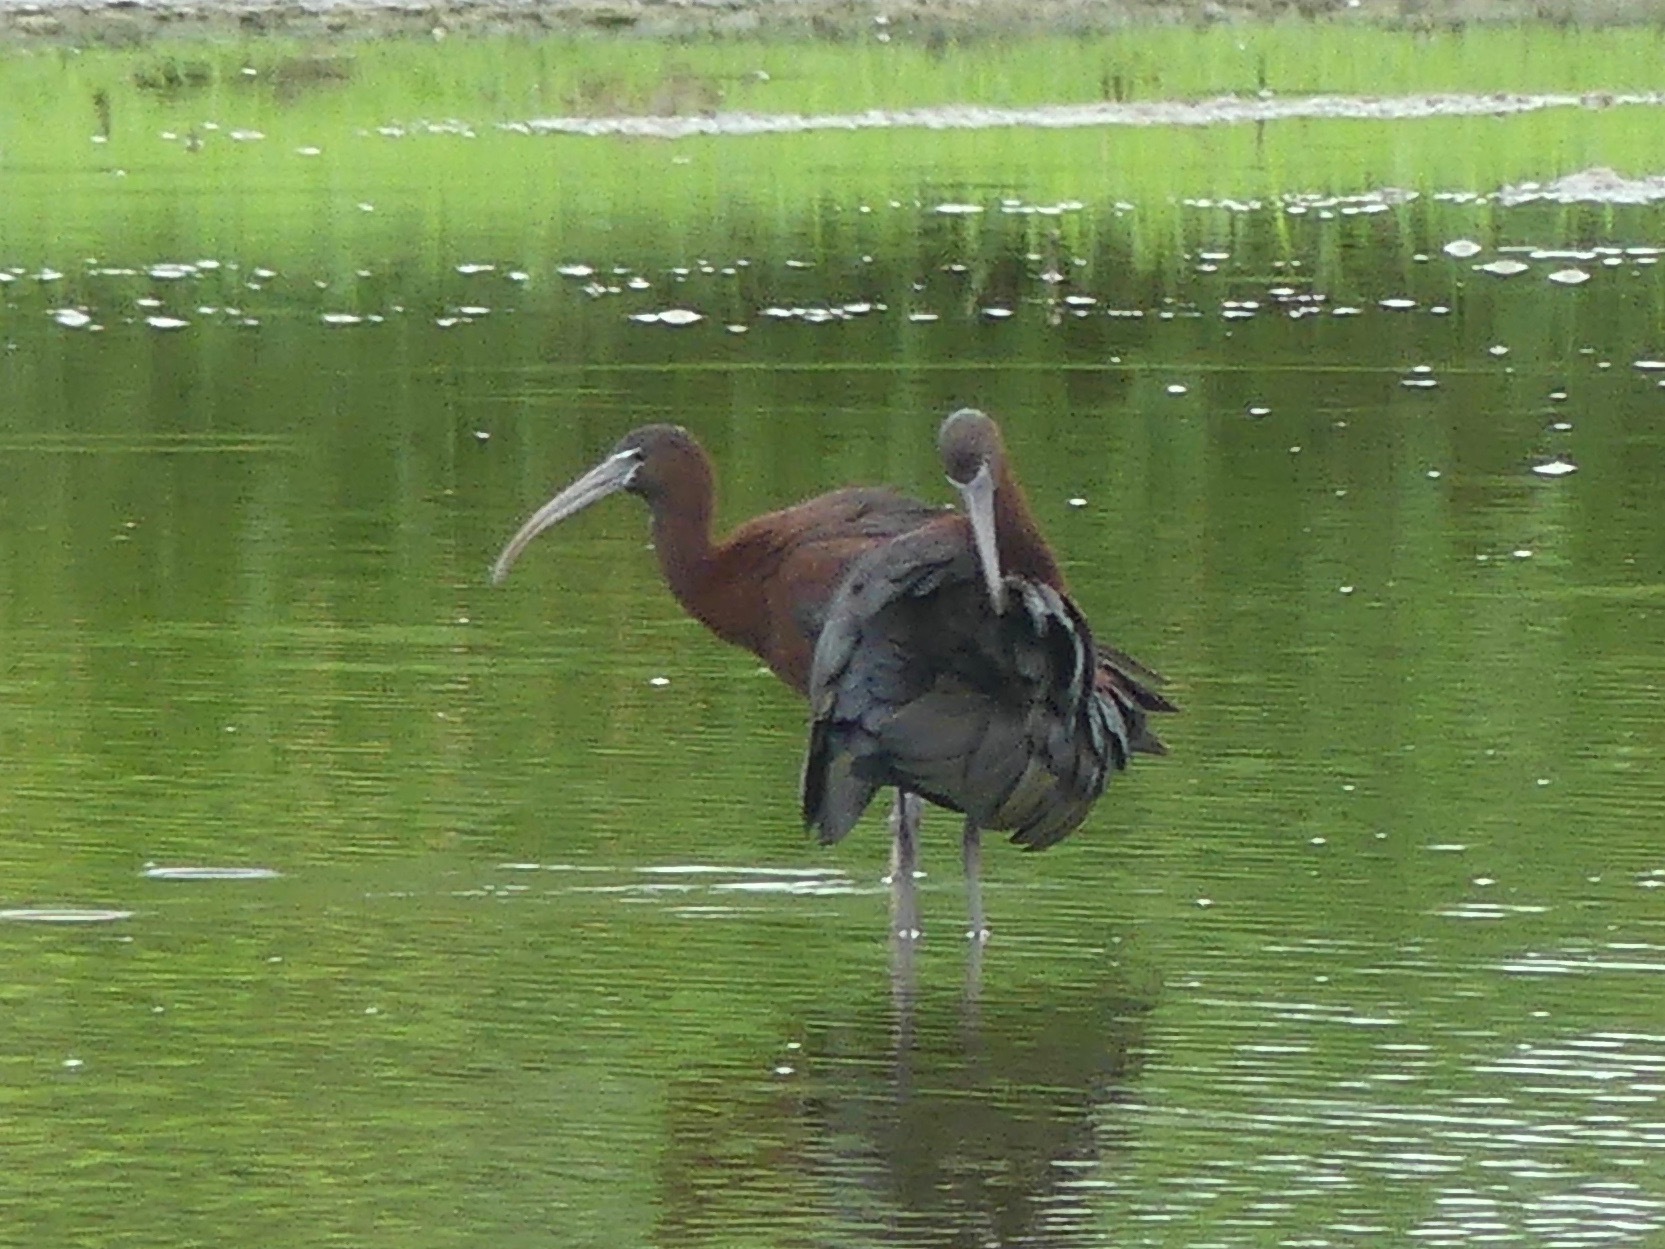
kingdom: Animalia
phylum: Chordata
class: Aves
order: Pelecaniformes
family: Threskiornithidae
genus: Plegadis
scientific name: Plegadis falcinellus
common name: Glossy ibis
